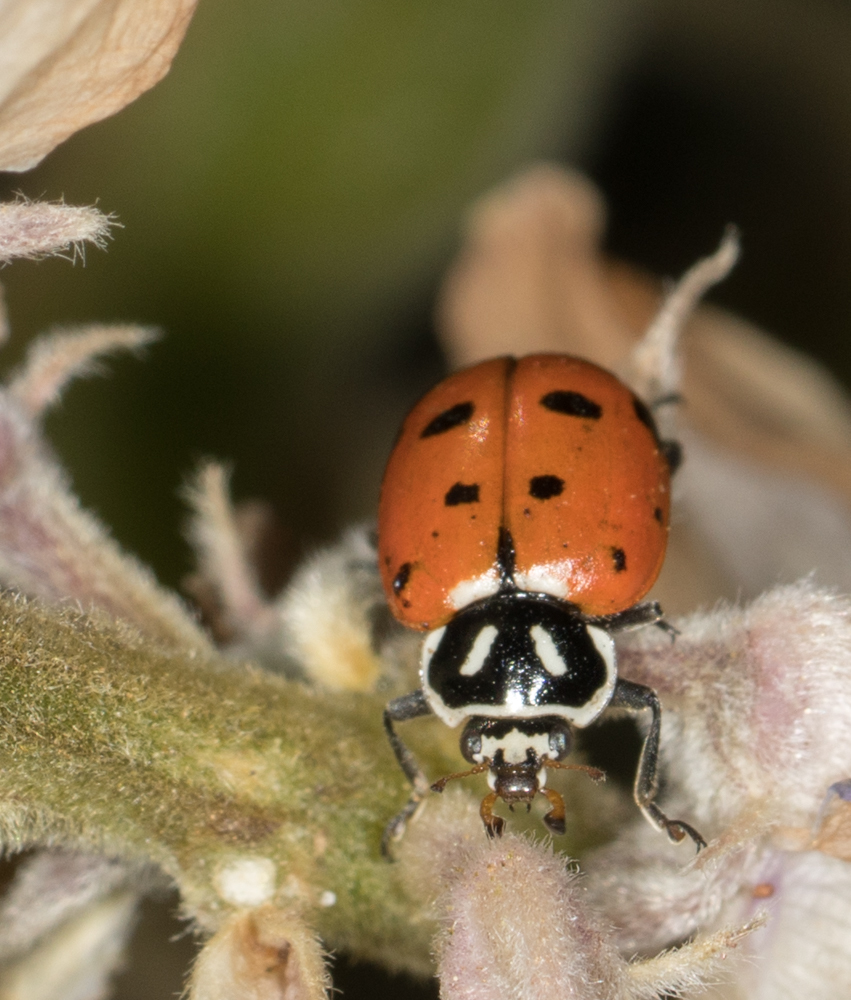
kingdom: Animalia
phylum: Arthropoda
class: Insecta
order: Coleoptera
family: Coccinellidae
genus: Hippodamia
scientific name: Hippodamia convergens
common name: Convergent lady beetle
